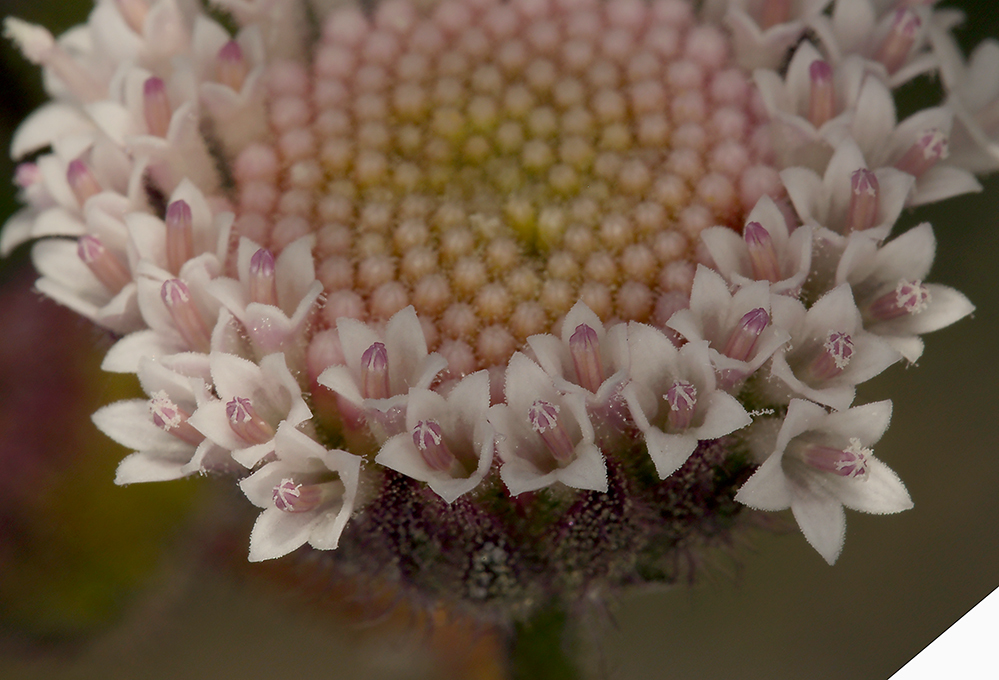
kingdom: Plantae
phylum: Tracheophyta
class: Magnoliopsida
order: Asterales
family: Asteraceae
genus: Chaenactis
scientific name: Chaenactis artemisiifolia
